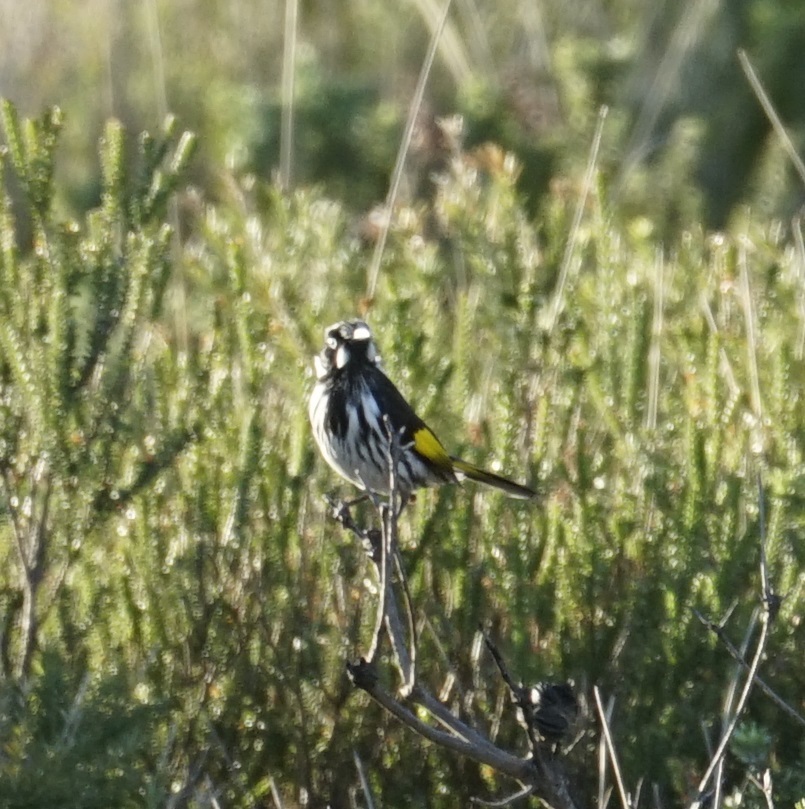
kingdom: Animalia
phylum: Chordata
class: Aves
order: Passeriformes
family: Meliphagidae
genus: Phylidonyris
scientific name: Phylidonyris novaehollandiae
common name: New holland honeyeater
